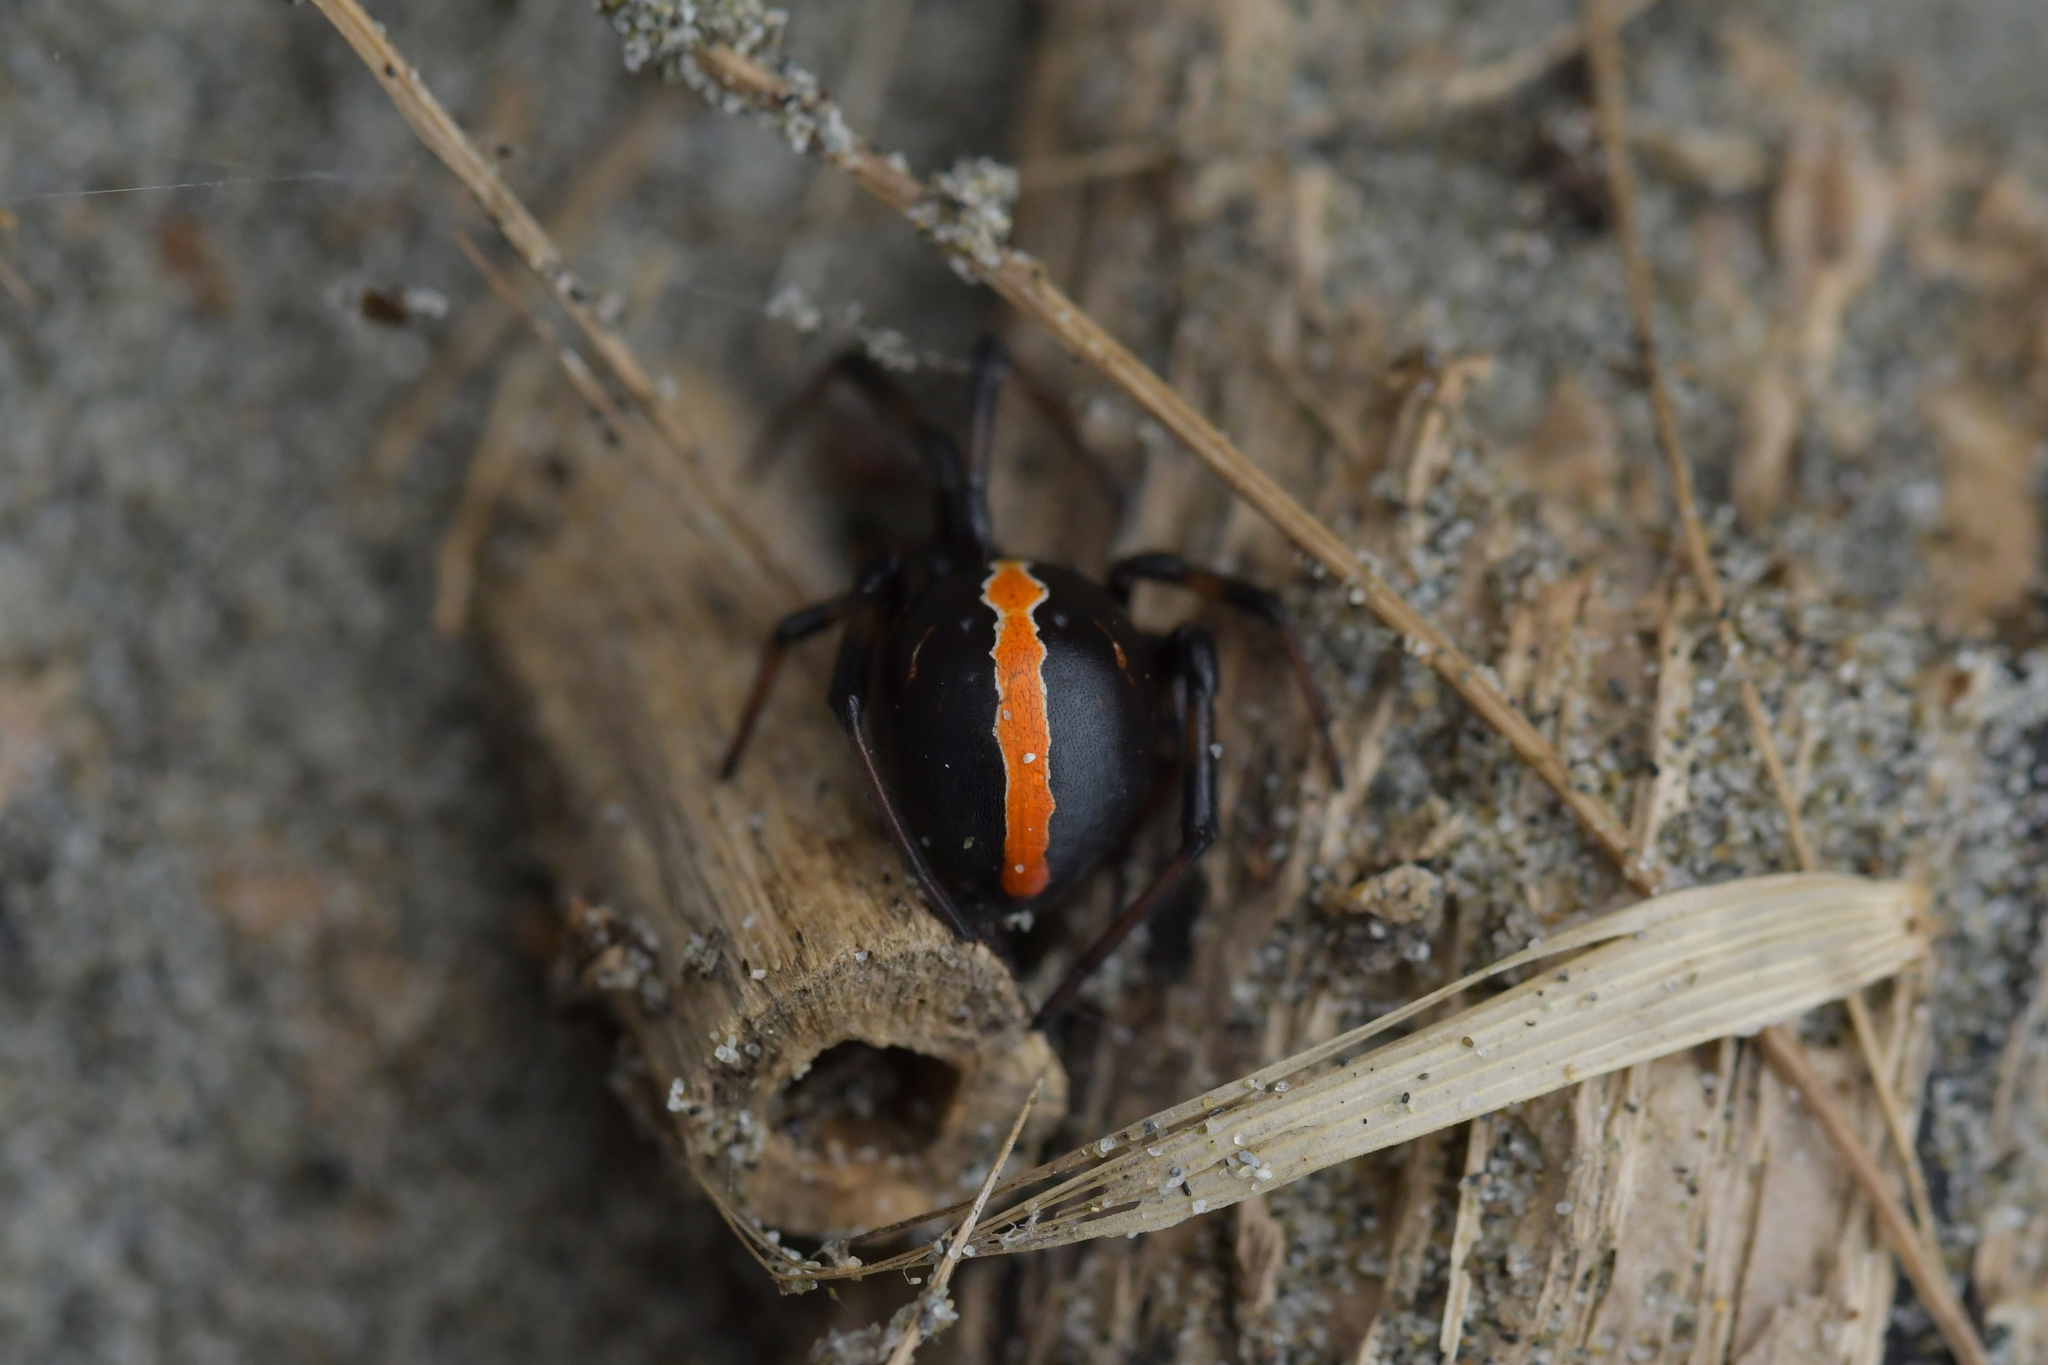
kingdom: Animalia
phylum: Arthropoda
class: Arachnida
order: Araneae
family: Theridiidae
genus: Latrodectus
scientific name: Latrodectus katipo
